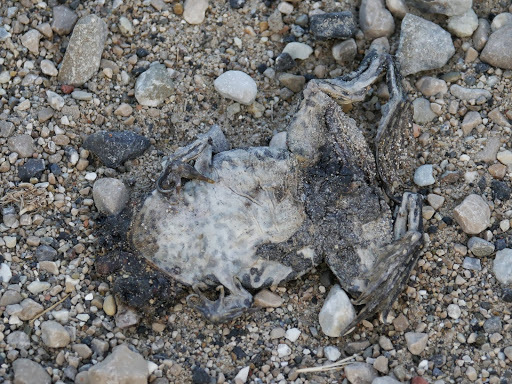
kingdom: Animalia
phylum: Chordata
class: Amphibia
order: Anura
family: Ranidae
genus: Pelophylax
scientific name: Pelophylax
